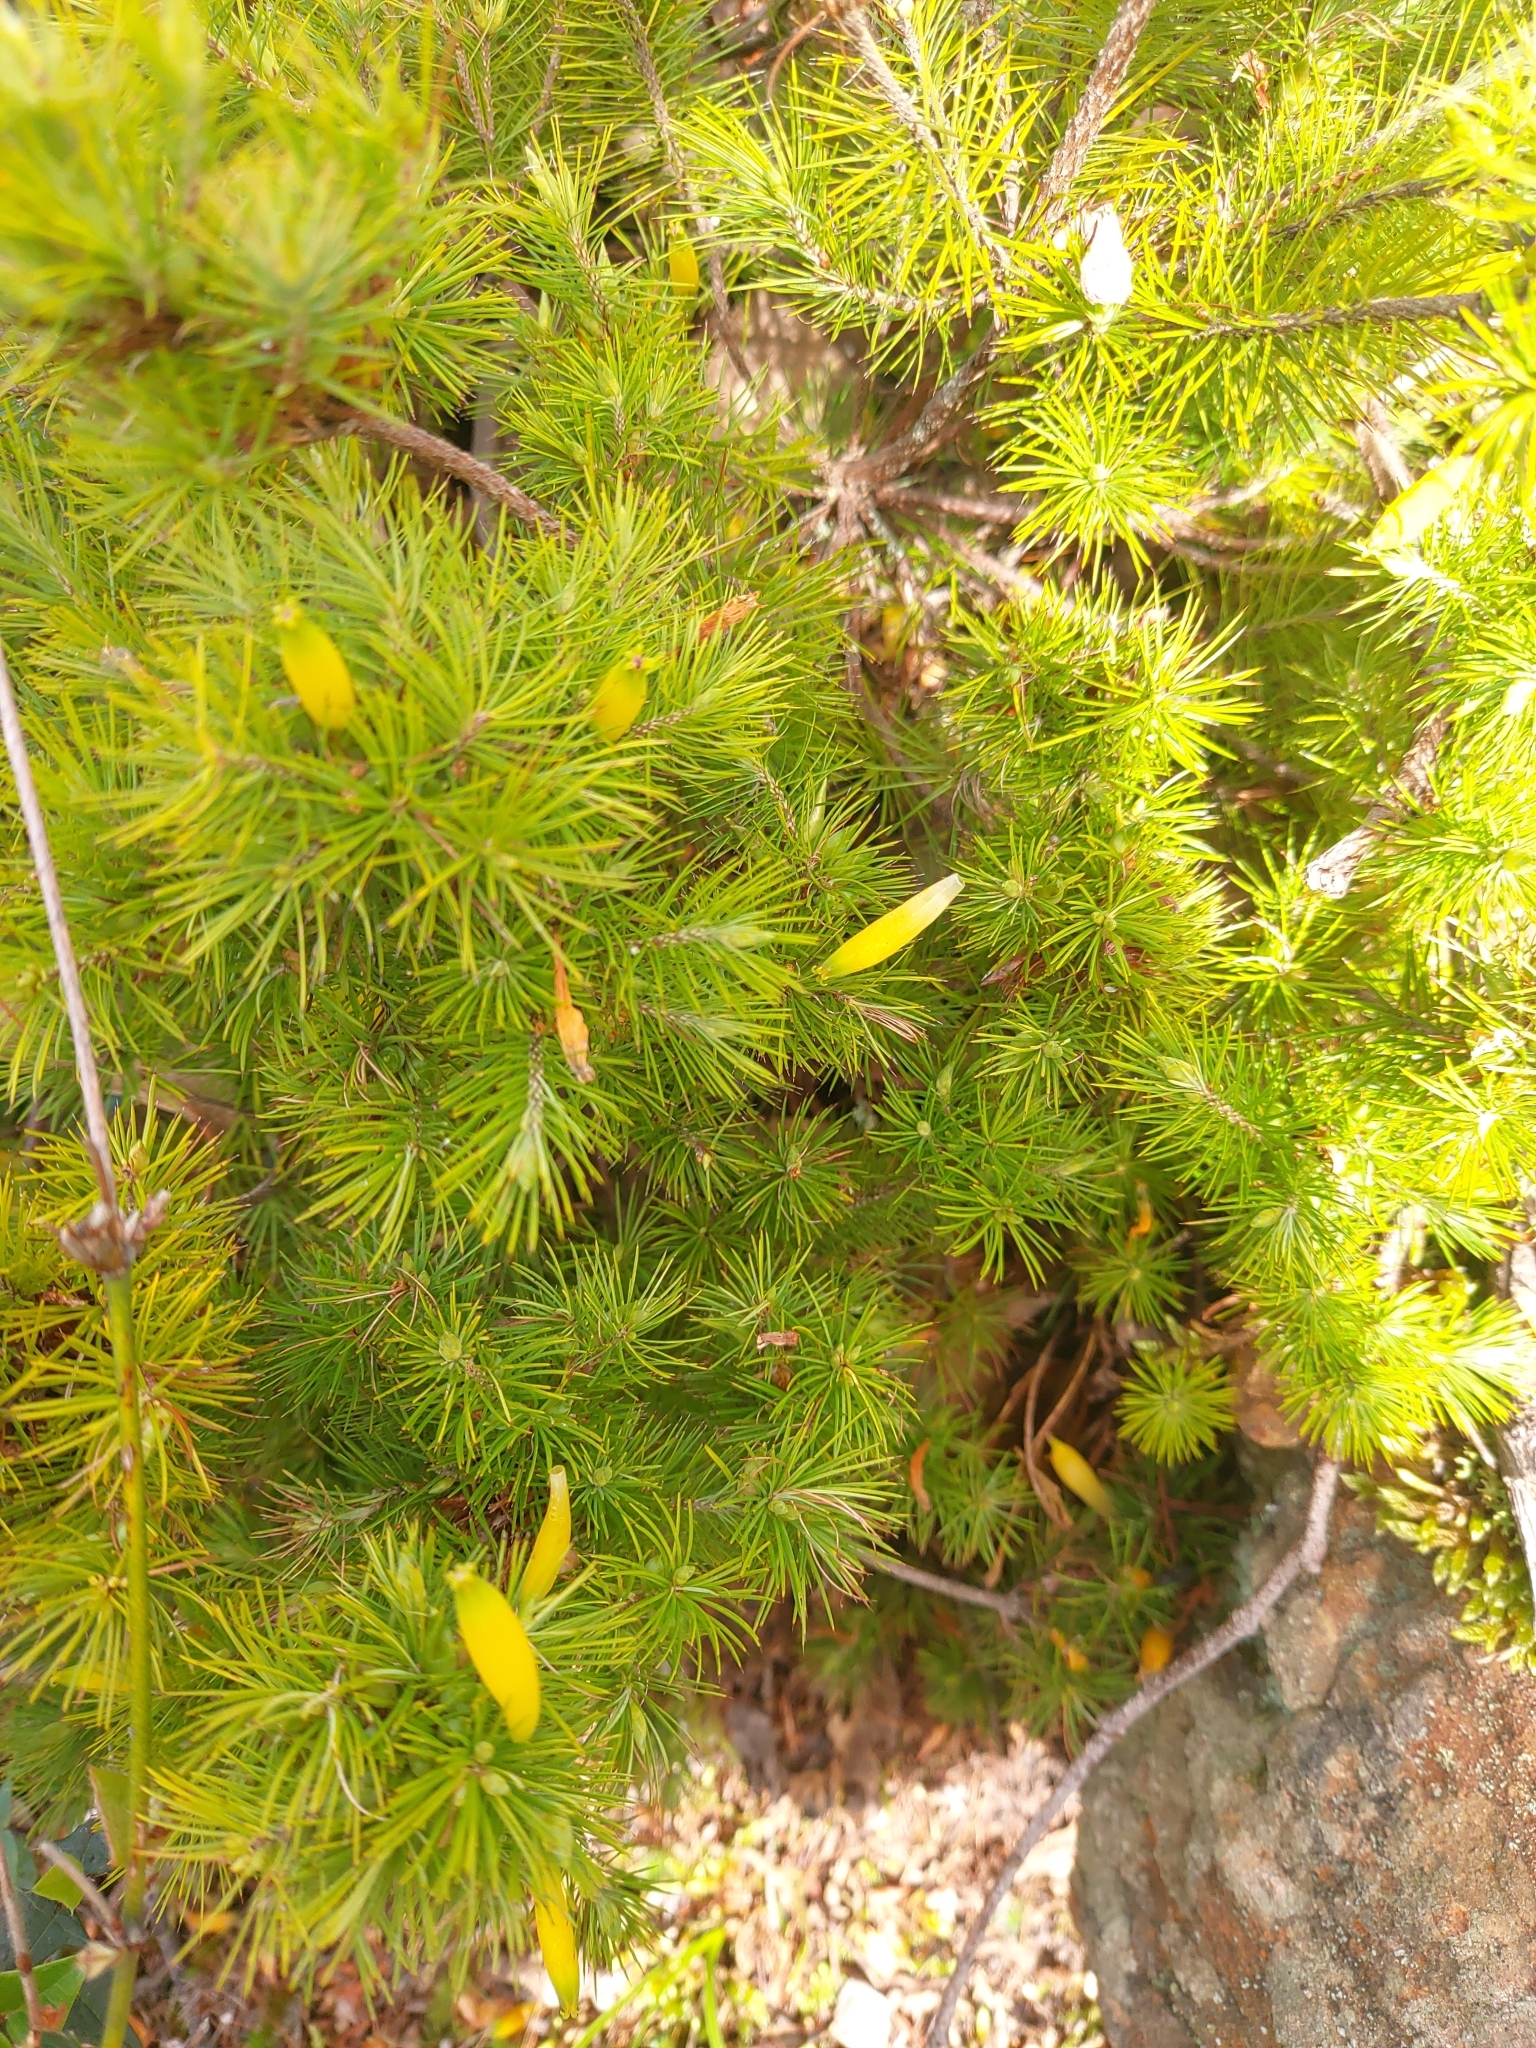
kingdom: Plantae
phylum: Tracheophyta
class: Magnoliopsida
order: Ericales
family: Ericaceae
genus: Stenanthera
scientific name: Stenanthera pinifolia
